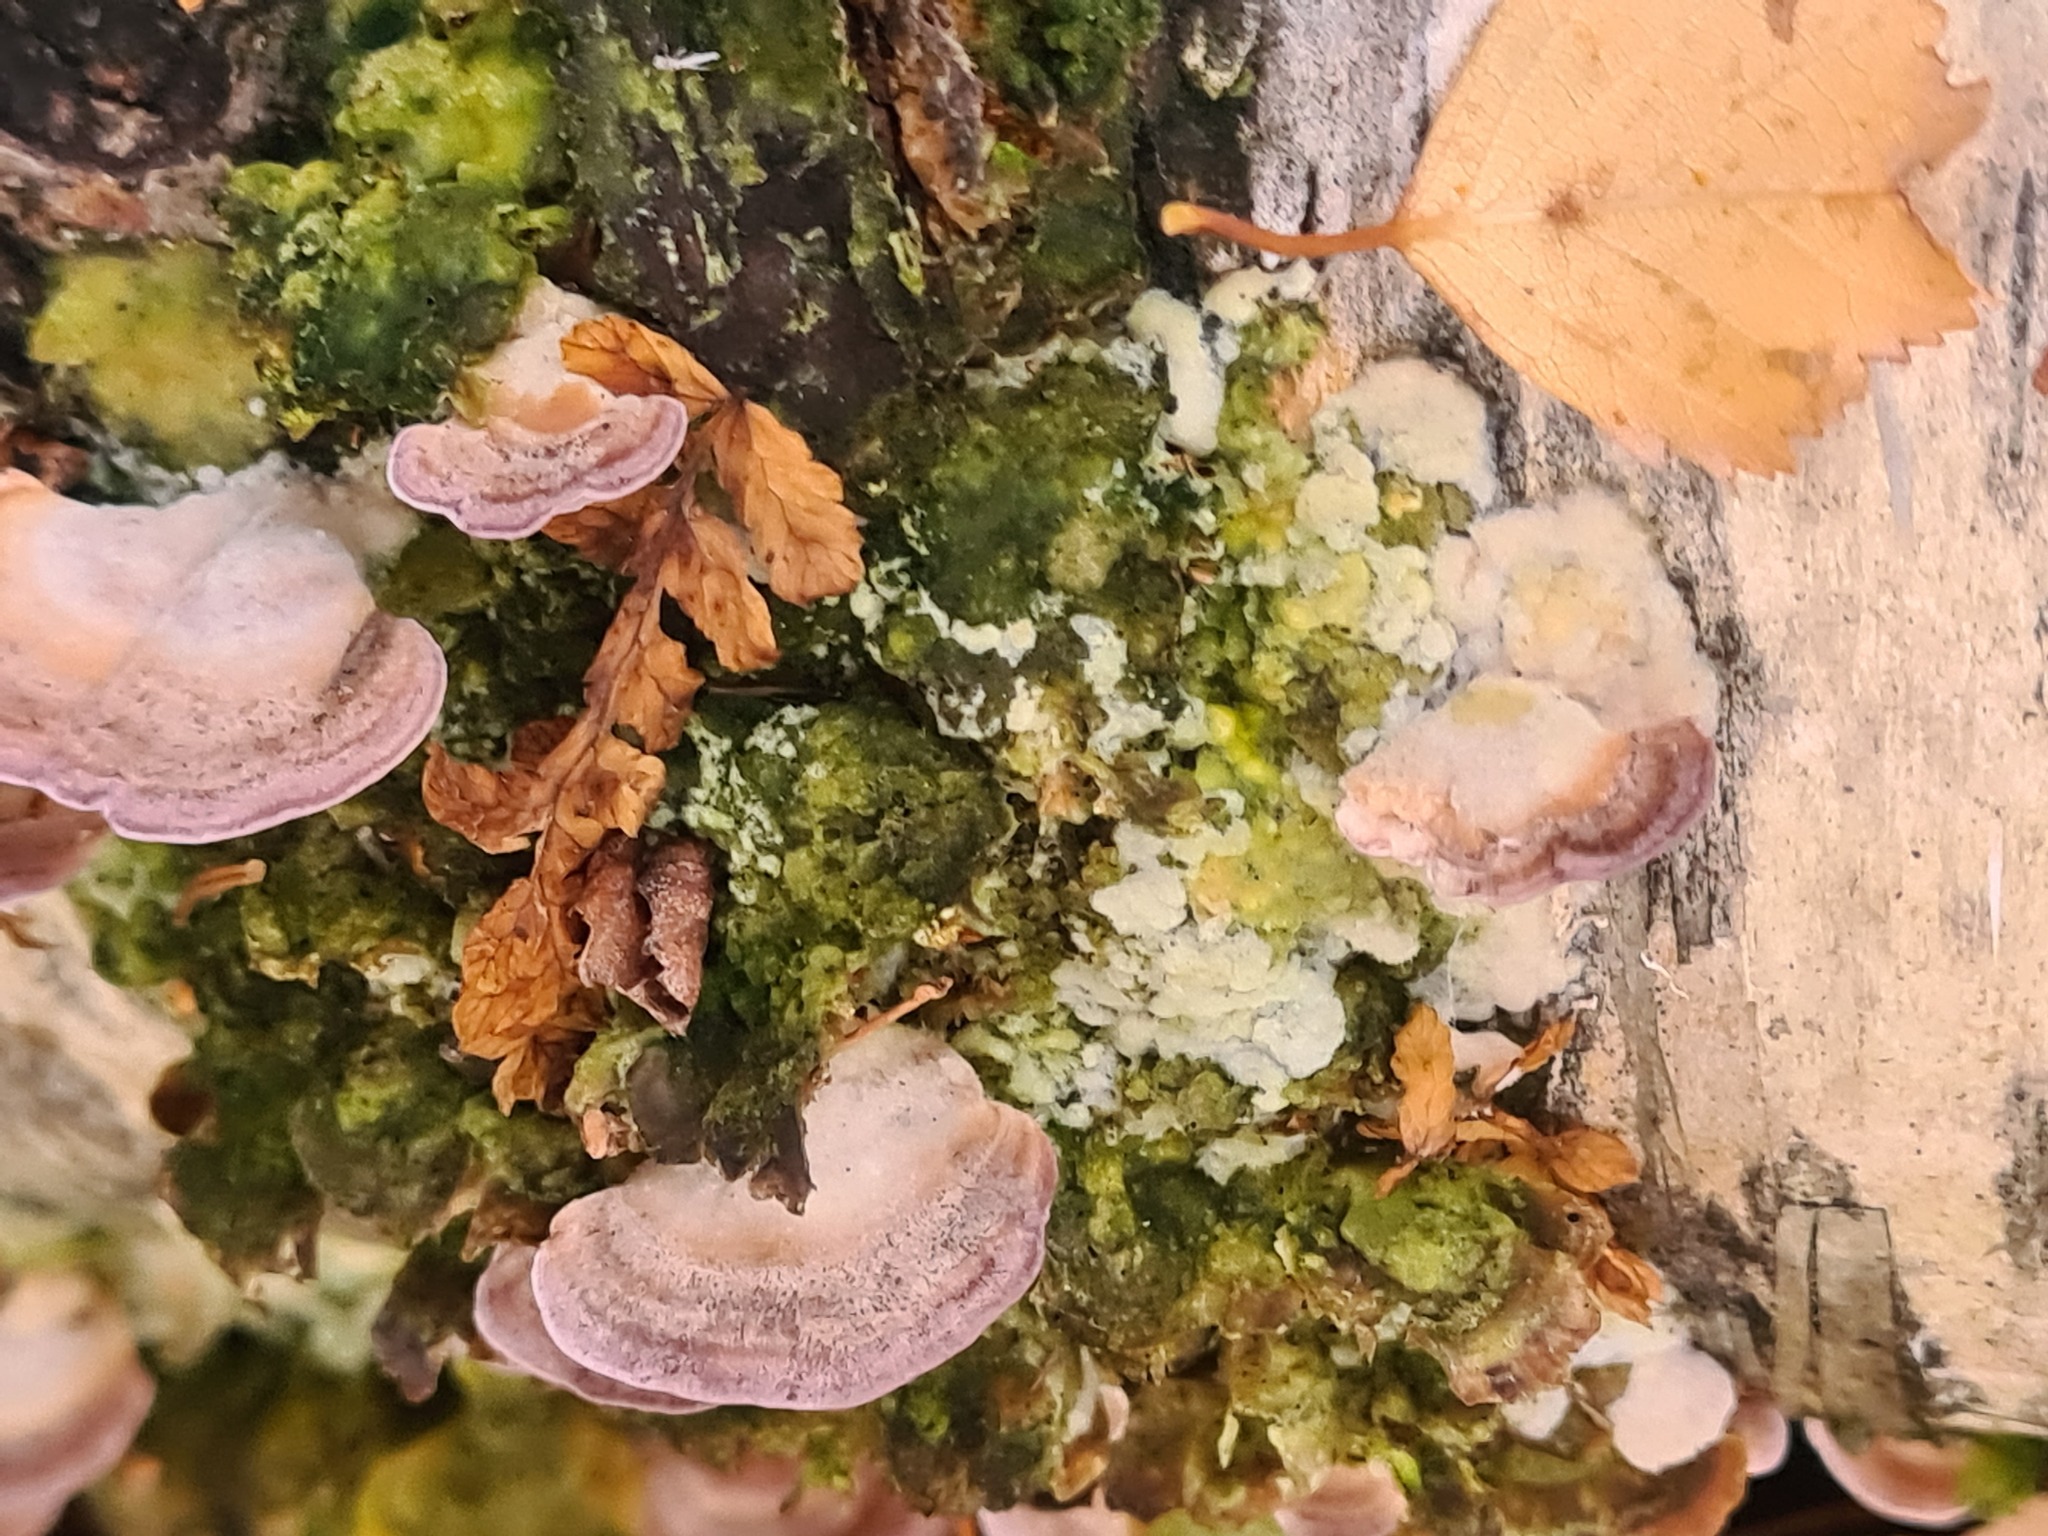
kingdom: Fungi
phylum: Basidiomycota
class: Agaricomycetes
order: Hymenochaetales
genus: Trichaptum
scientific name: Trichaptum biforme
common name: Violet-toothed polypore
